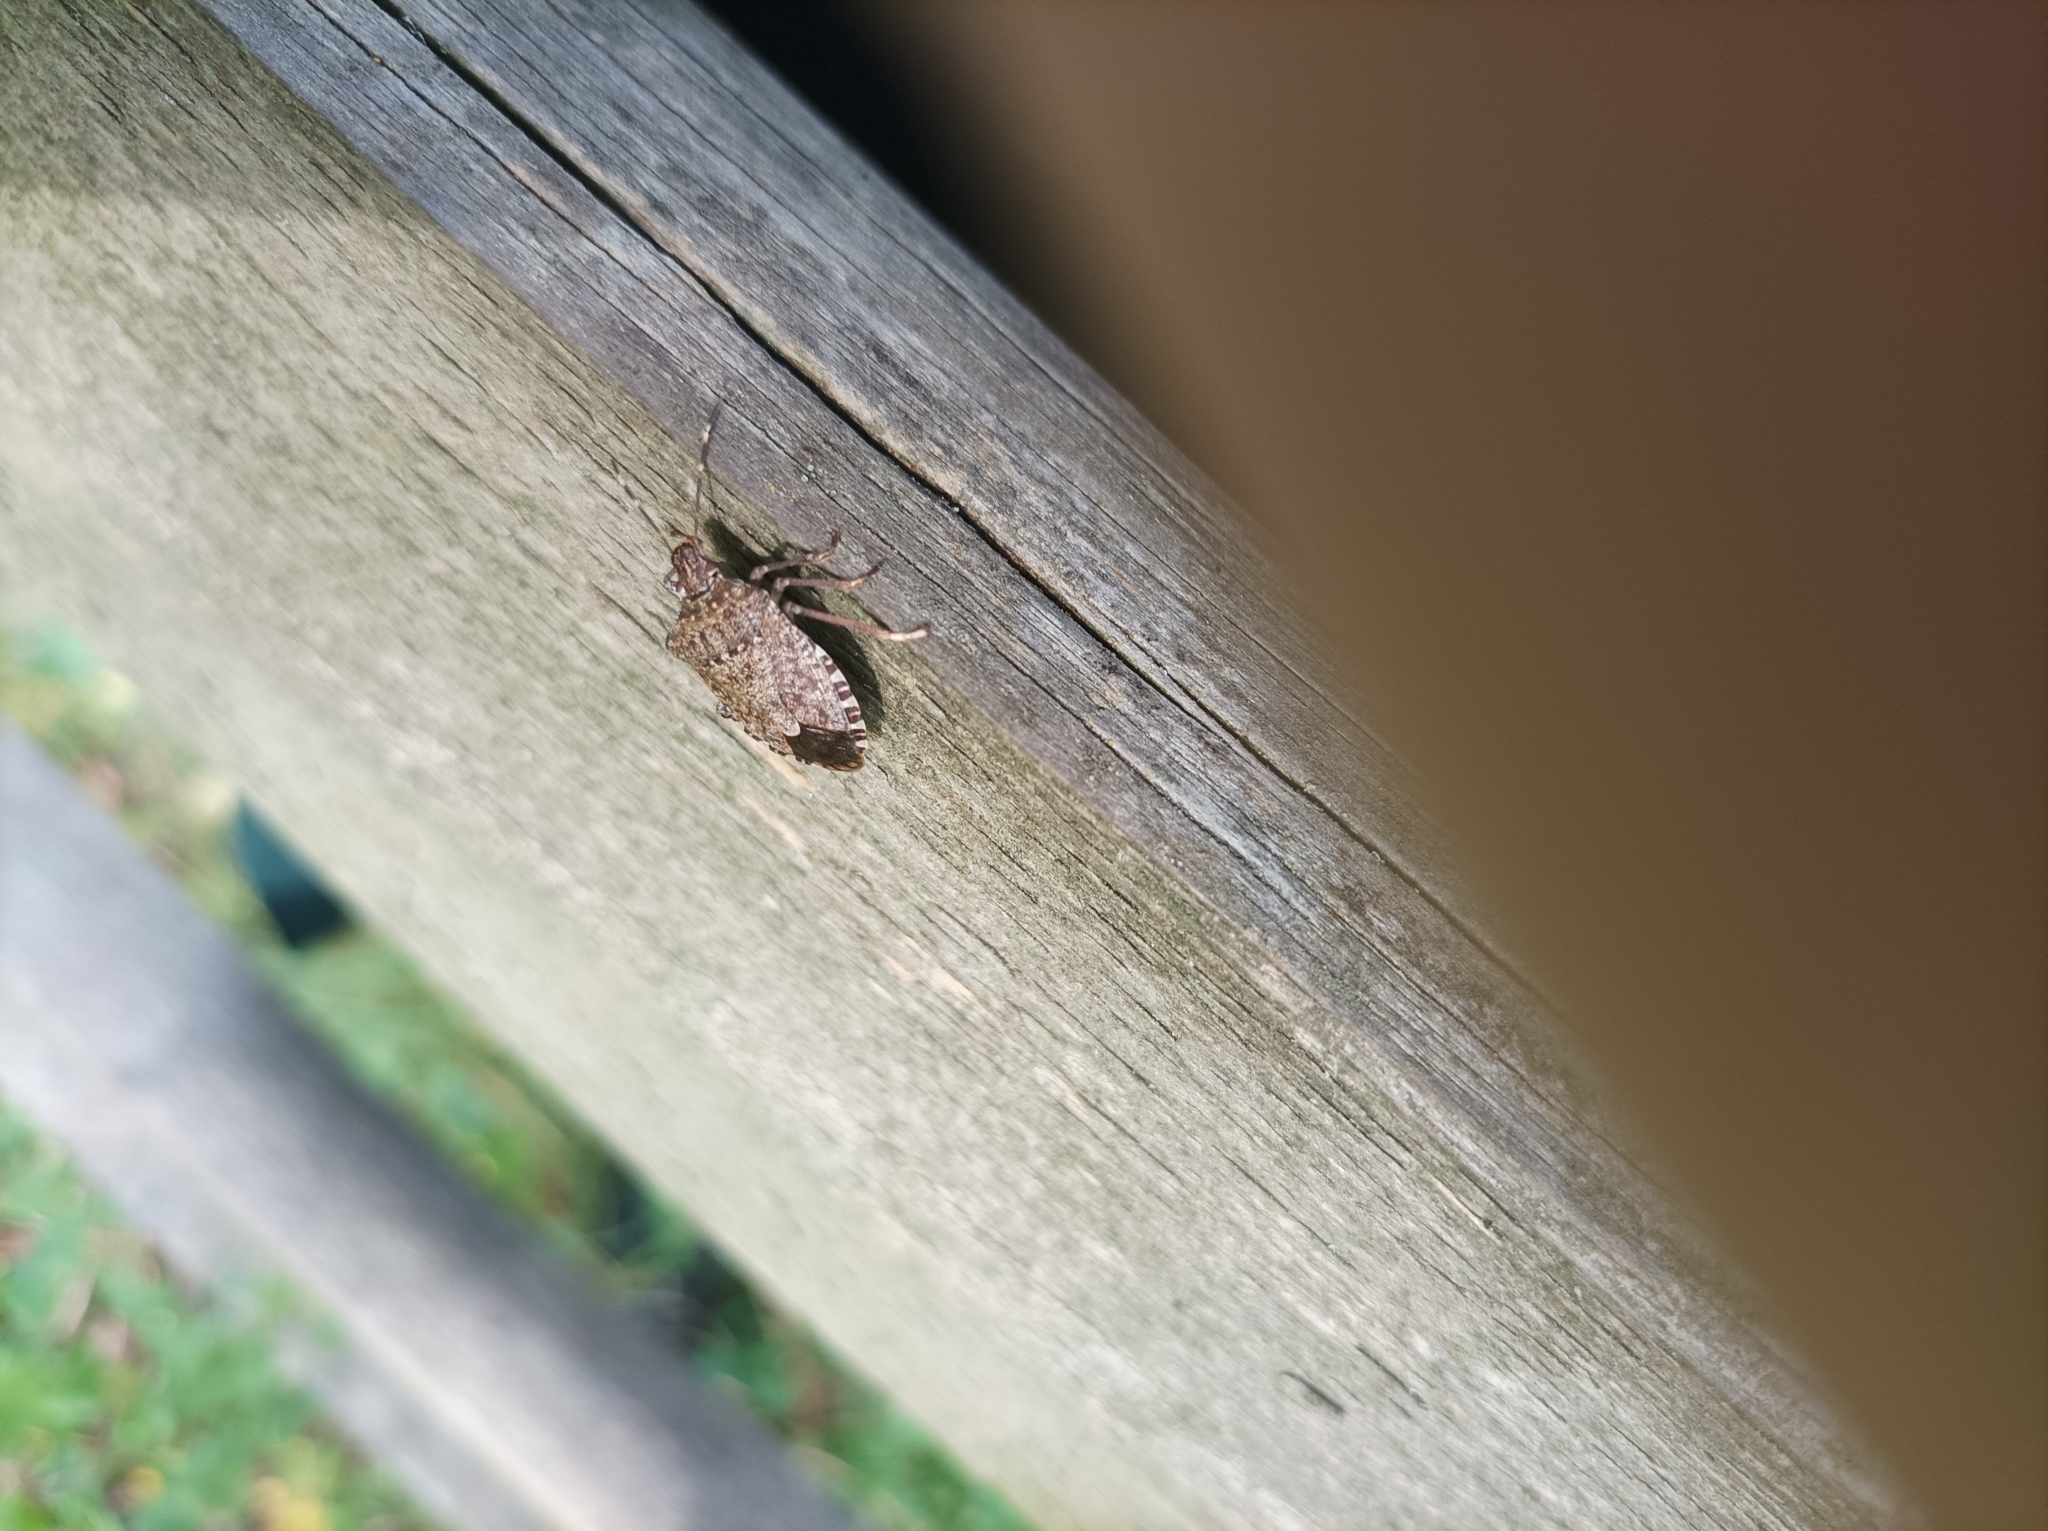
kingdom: Animalia
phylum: Arthropoda
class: Insecta
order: Hemiptera
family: Pentatomidae
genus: Halyomorpha
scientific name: Halyomorpha halys
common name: Brown marmorated stink bug
